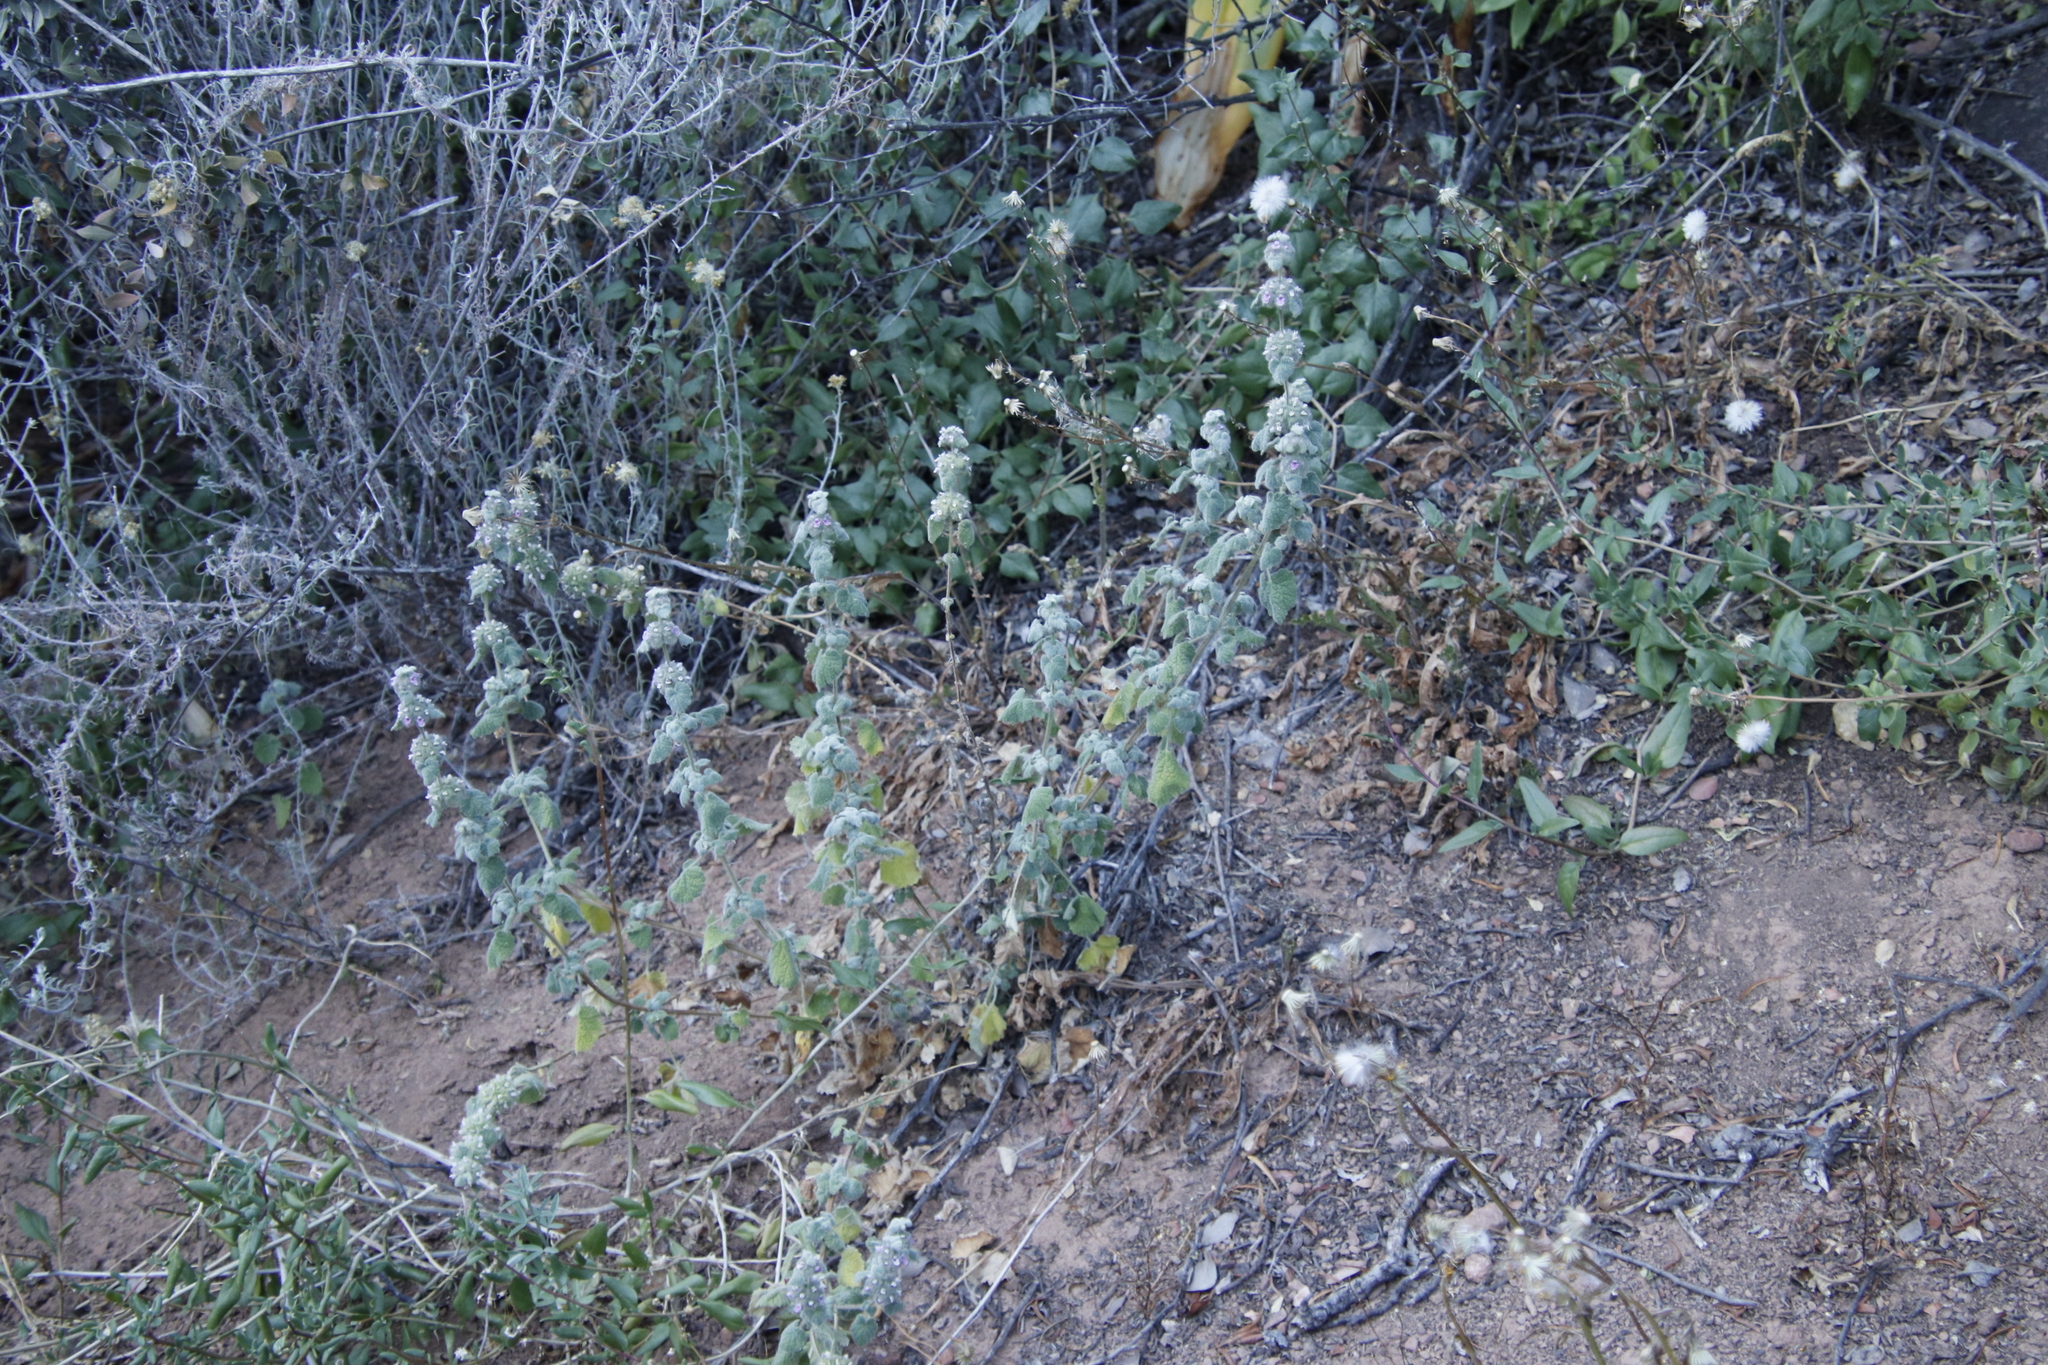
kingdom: Plantae
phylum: Tracheophyta
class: Magnoliopsida
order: Lamiales
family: Lamiaceae
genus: Pseudodictamnus
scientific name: Pseudodictamnus africanus
